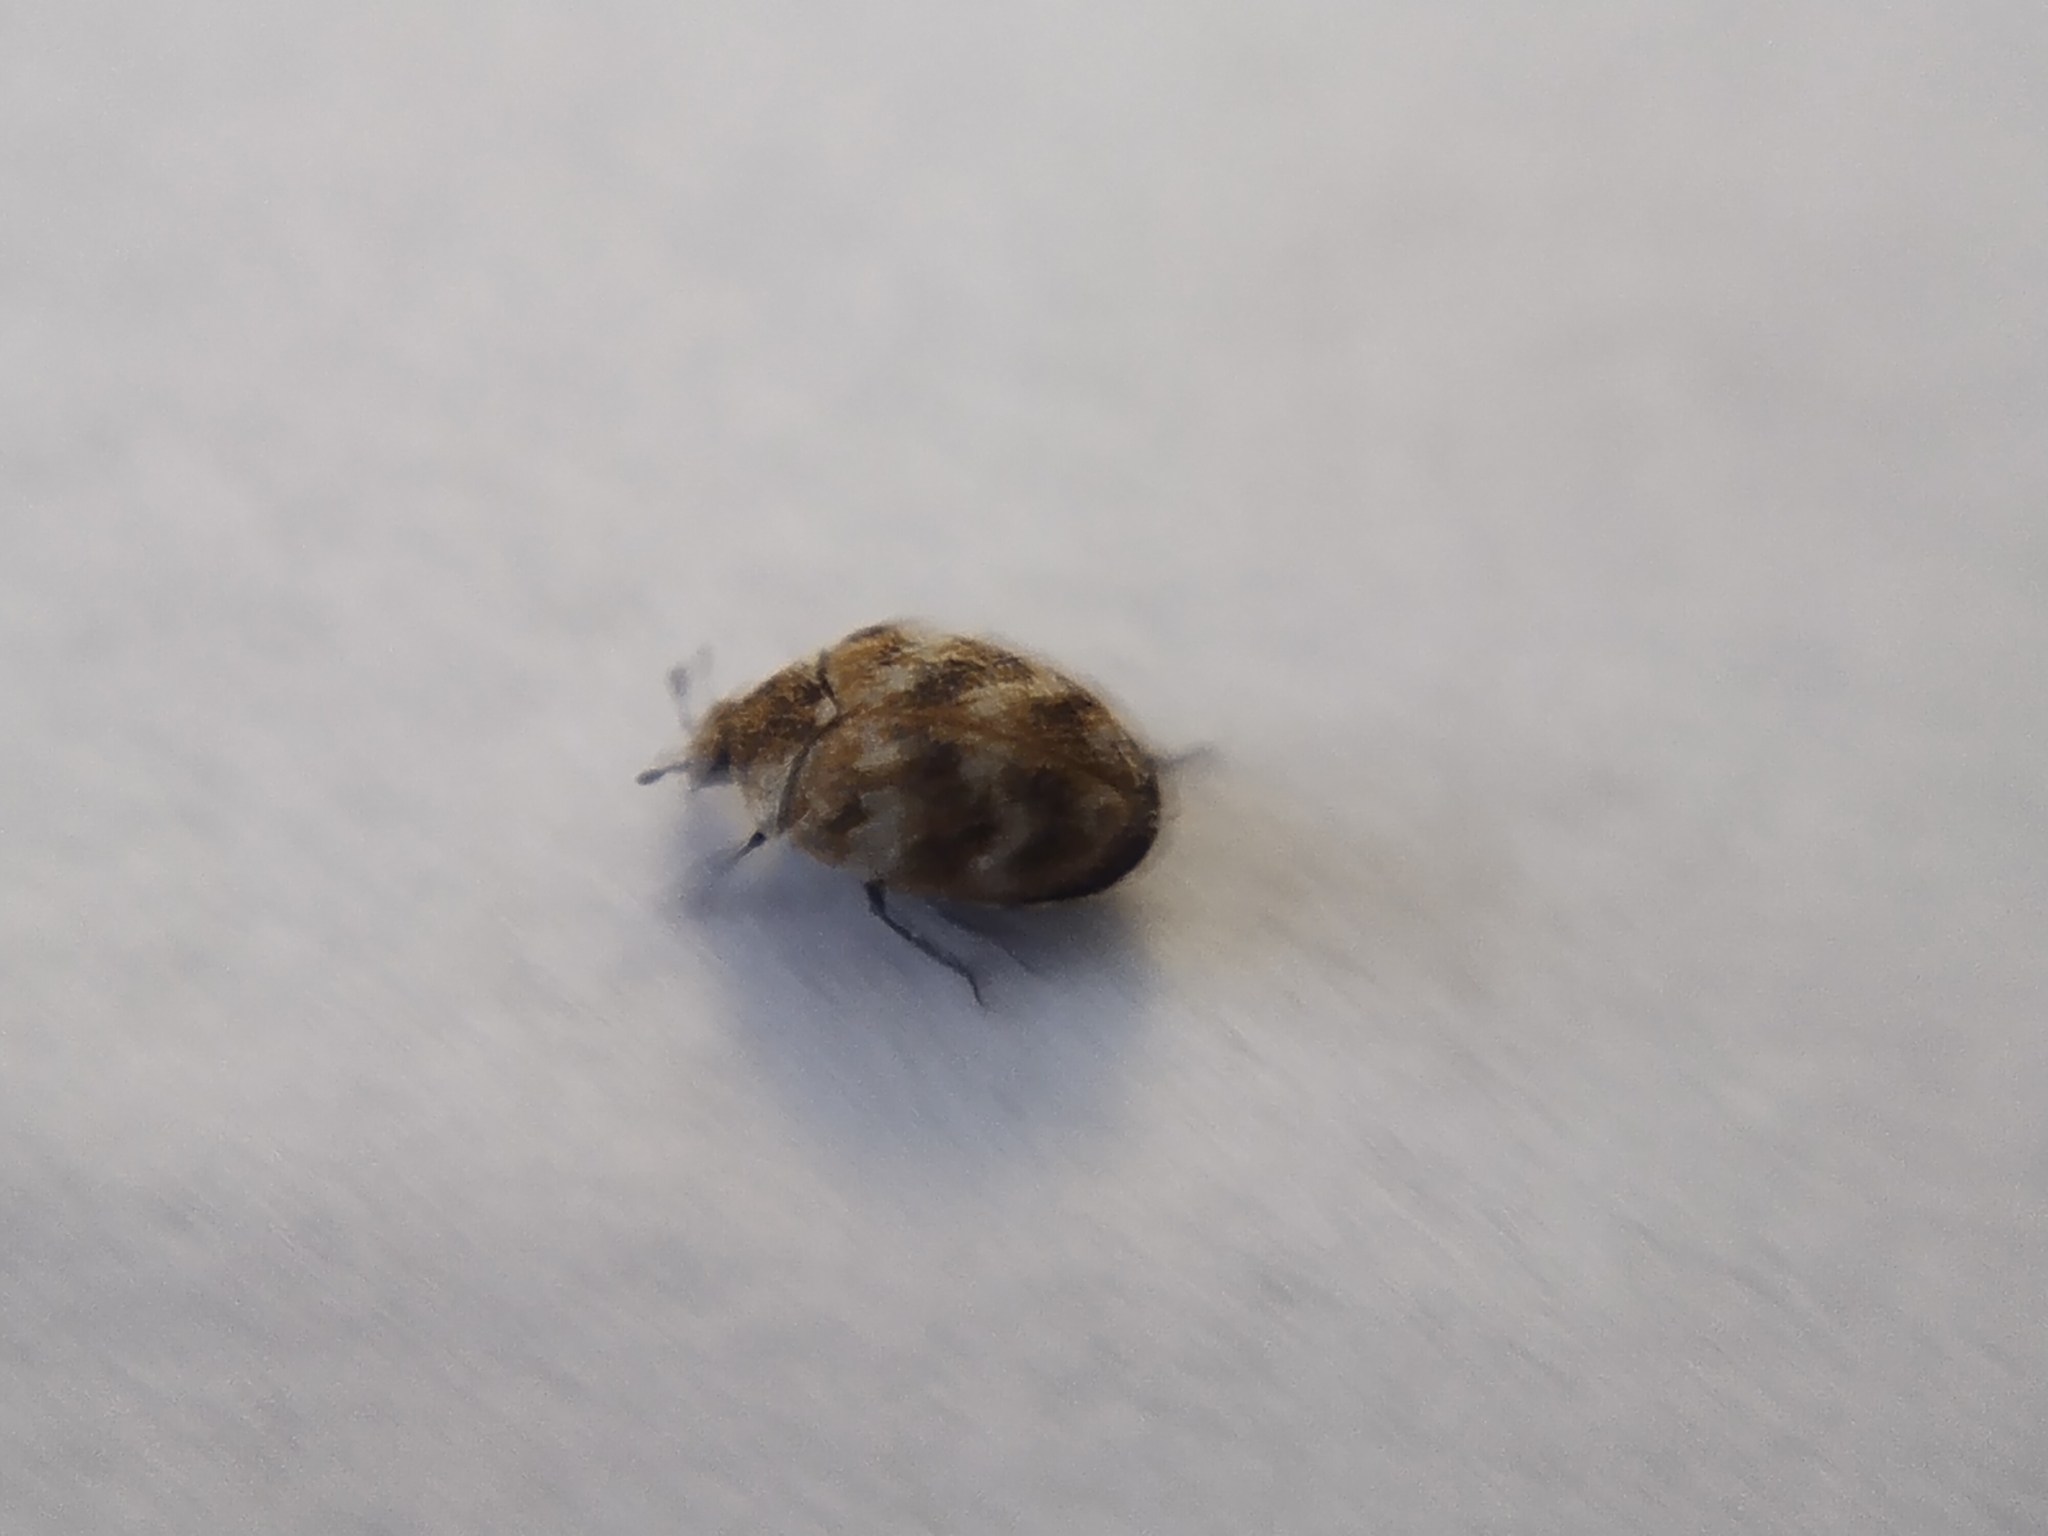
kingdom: Animalia
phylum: Arthropoda
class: Insecta
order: Coleoptera
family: Dermestidae
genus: Anthrenus
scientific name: Anthrenus verbasci
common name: Varied carpet beetle
